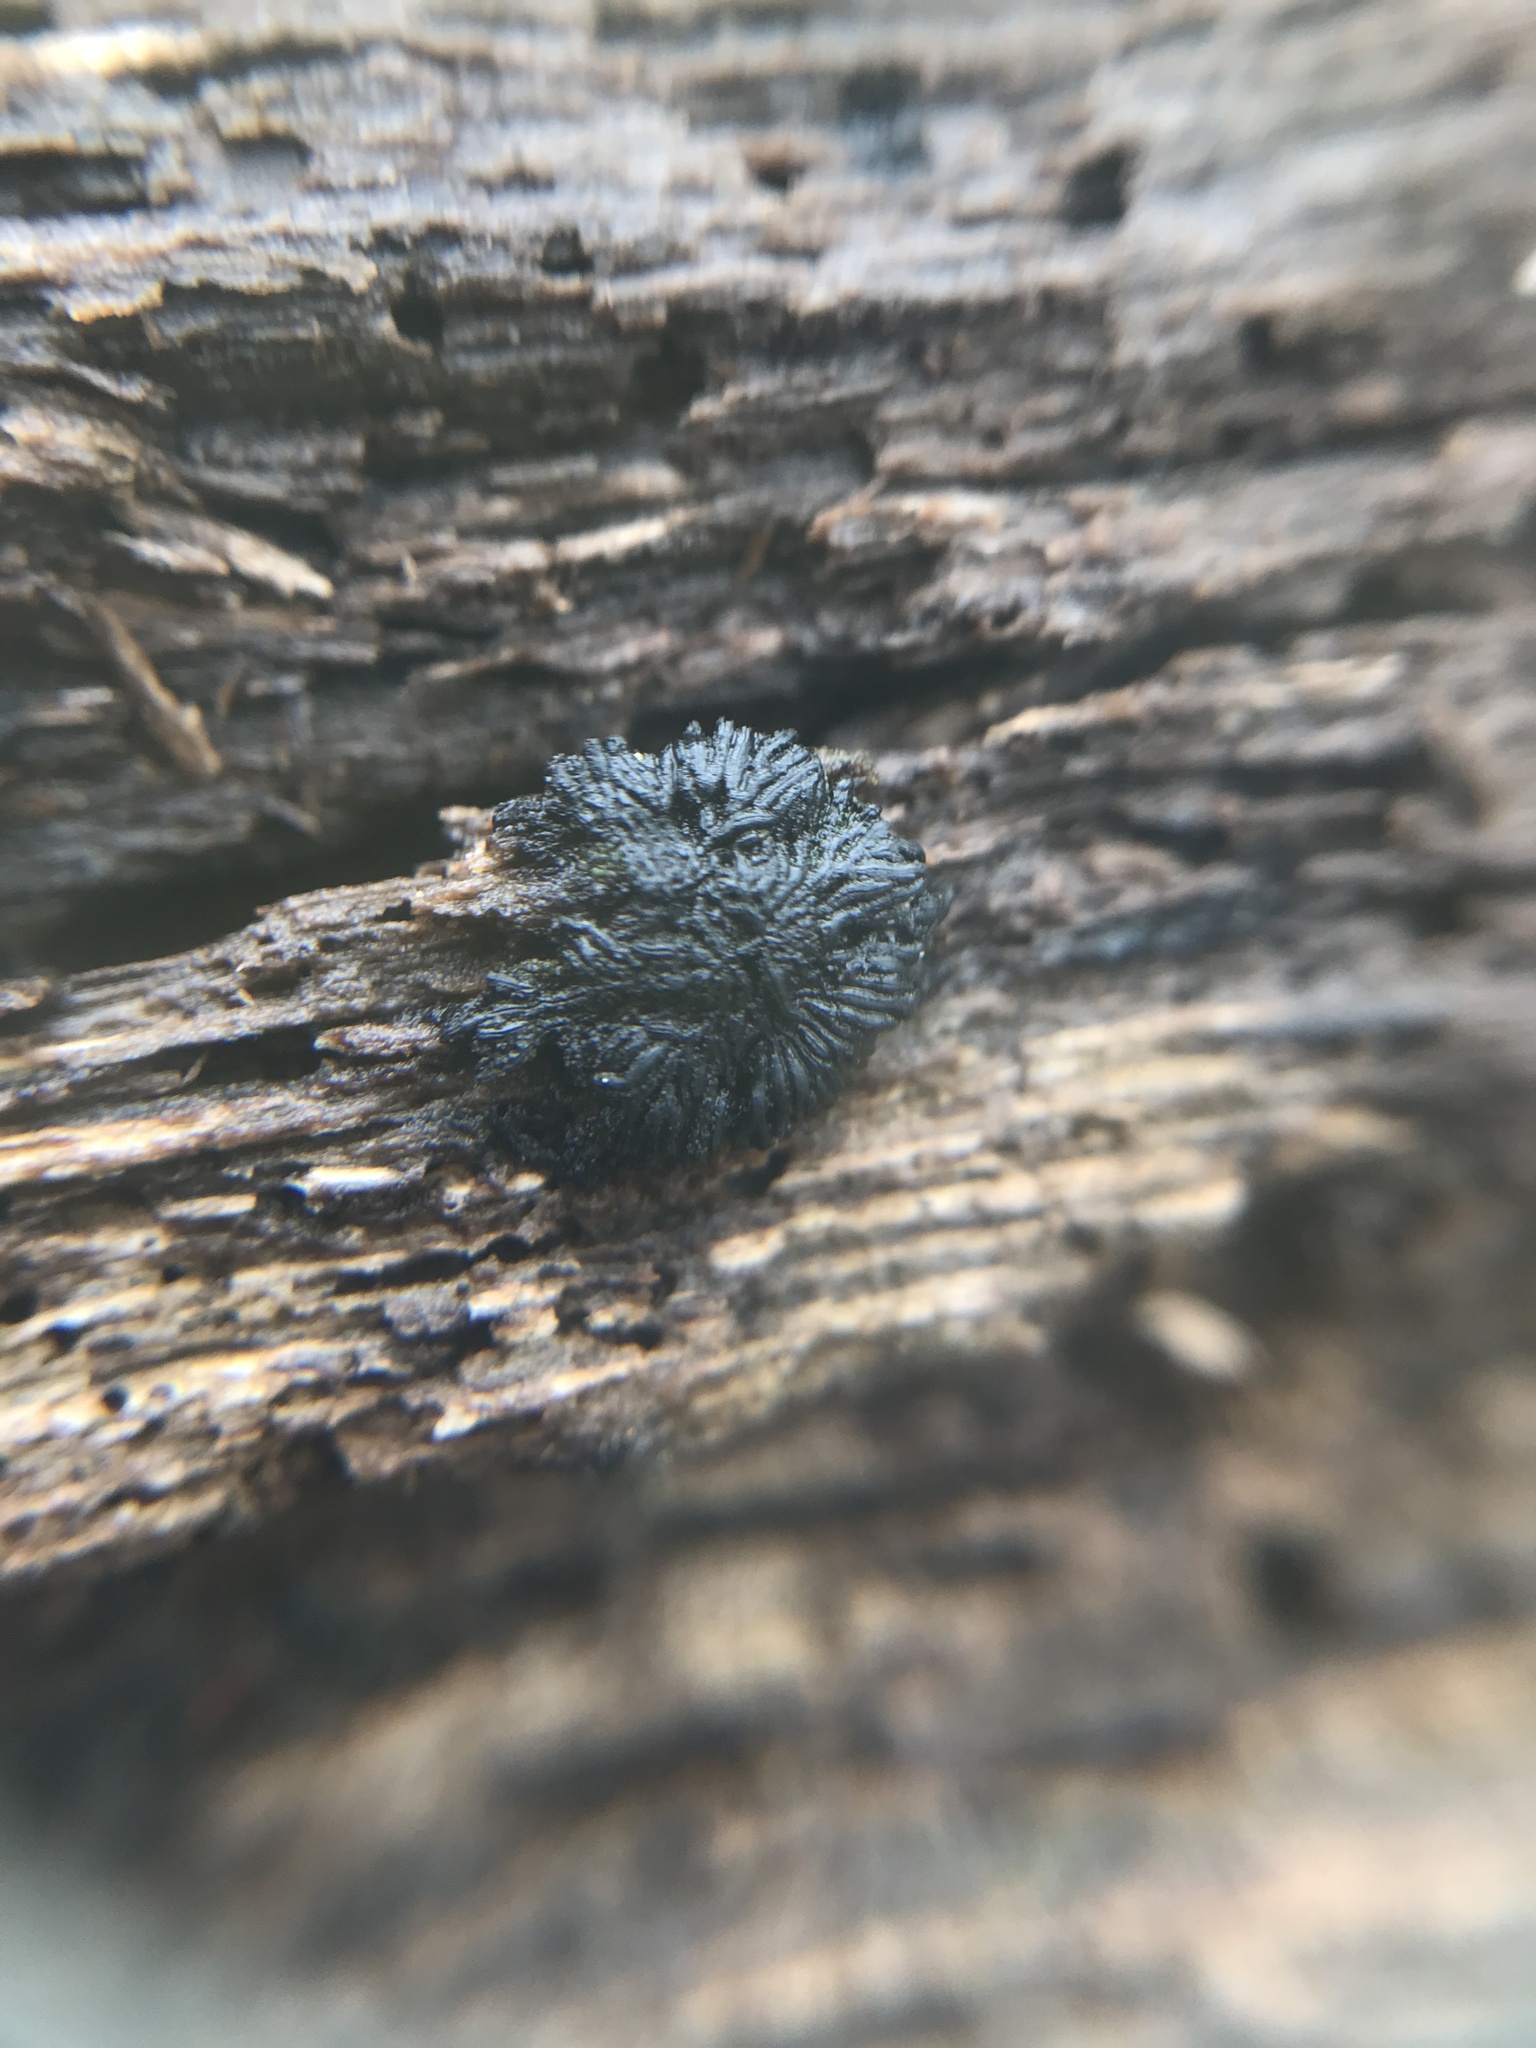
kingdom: Fungi
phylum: Ascomycota
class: Dothideomycetes
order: Mytilinidiales
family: Gloniaceae
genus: Glonium
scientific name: Glonium stellatum
